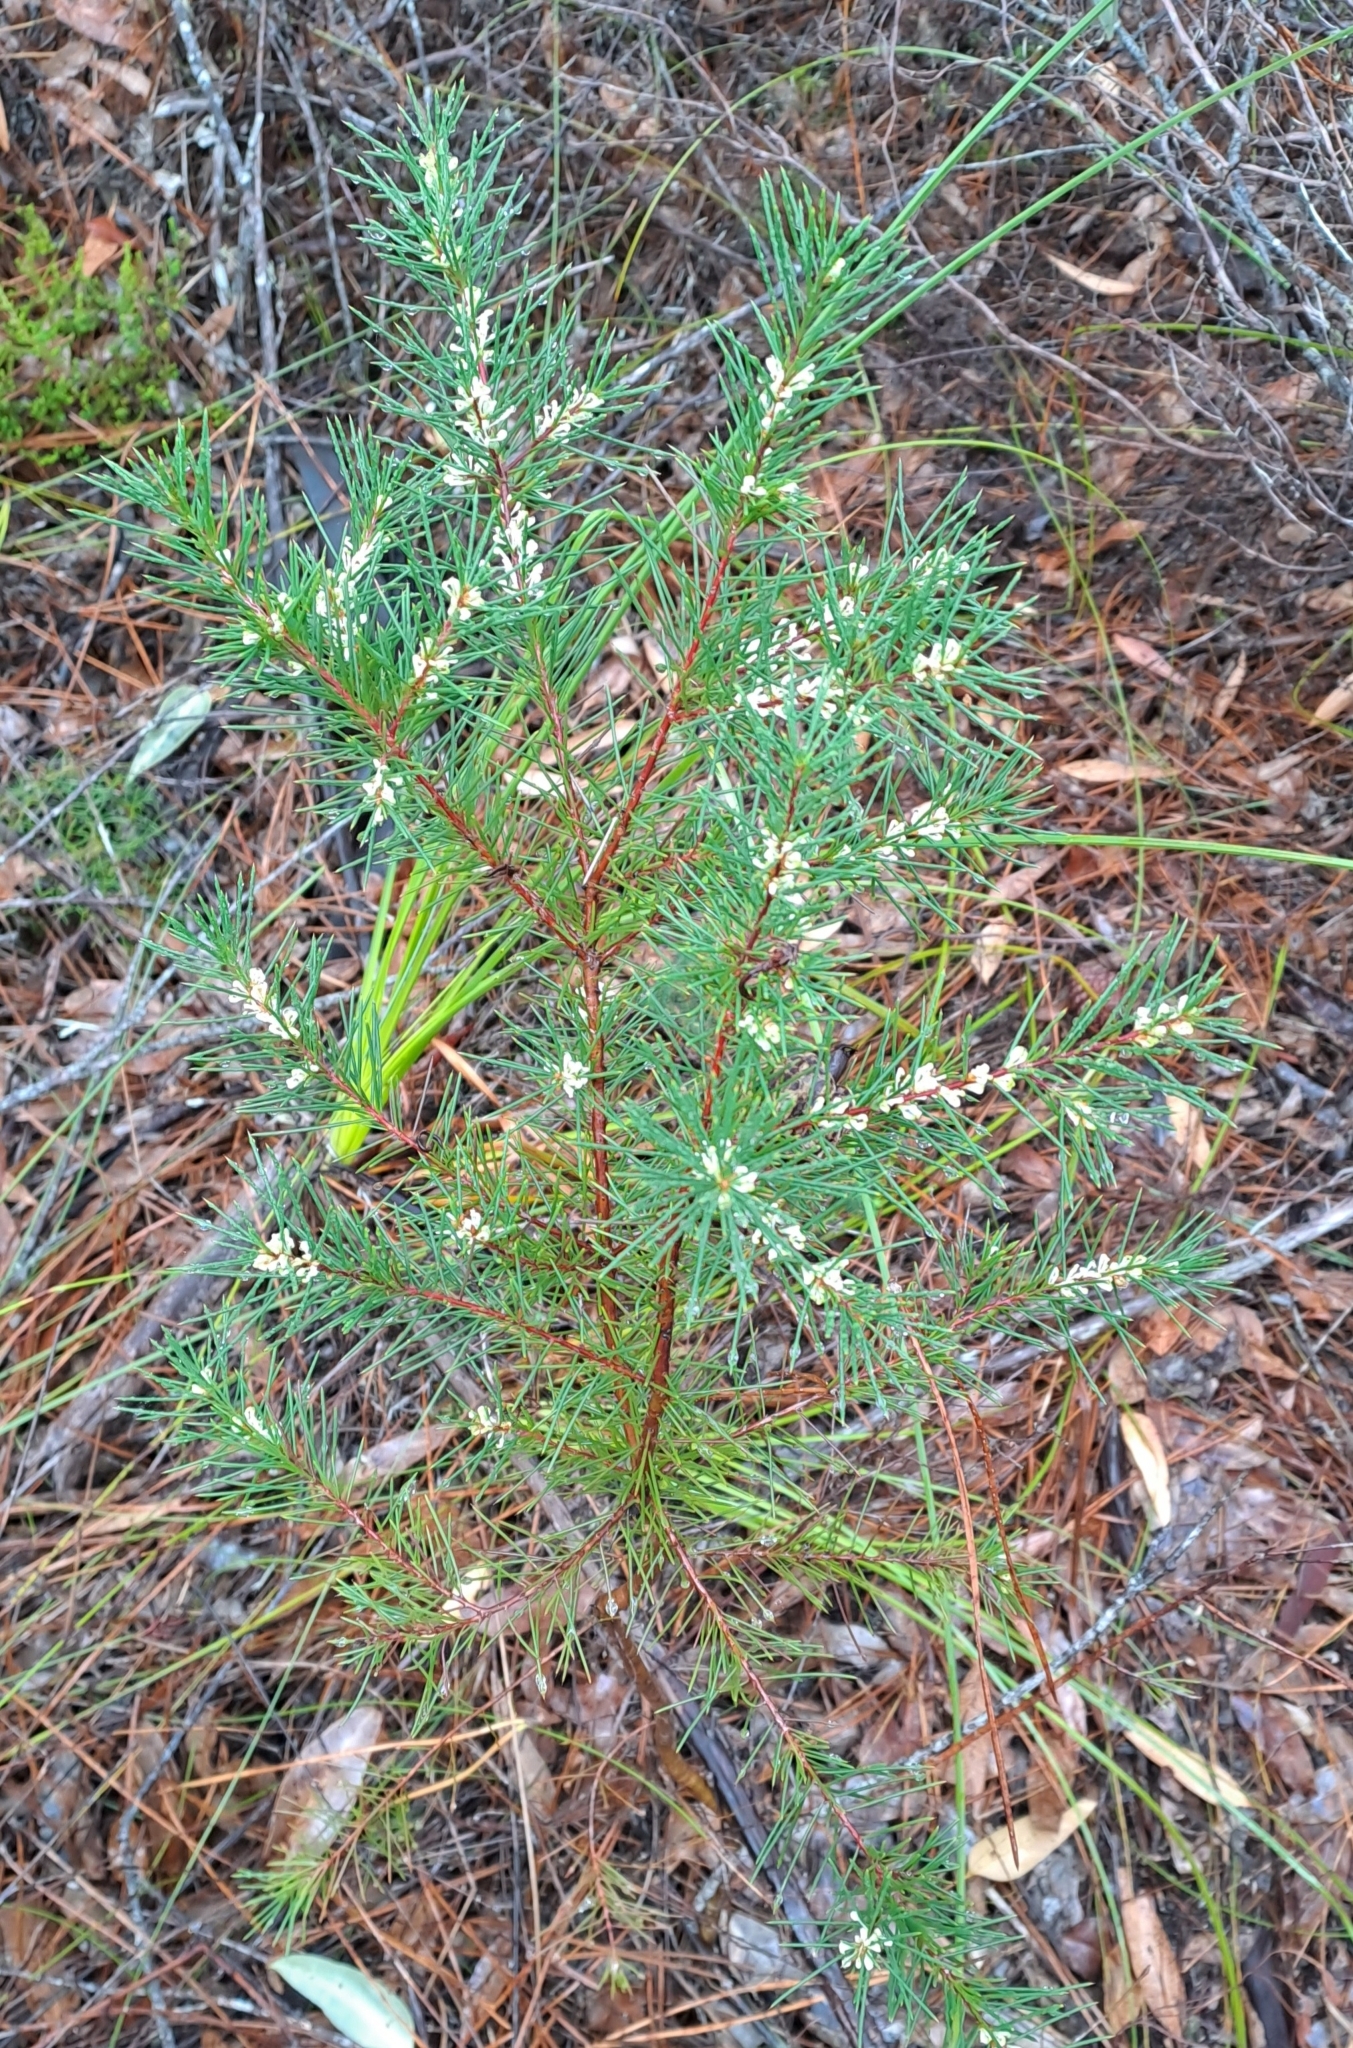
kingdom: Plantae
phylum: Tracheophyta
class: Magnoliopsida
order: Proteales
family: Proteaceae
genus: Hakea
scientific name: Hakea sericea
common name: Needle bush
